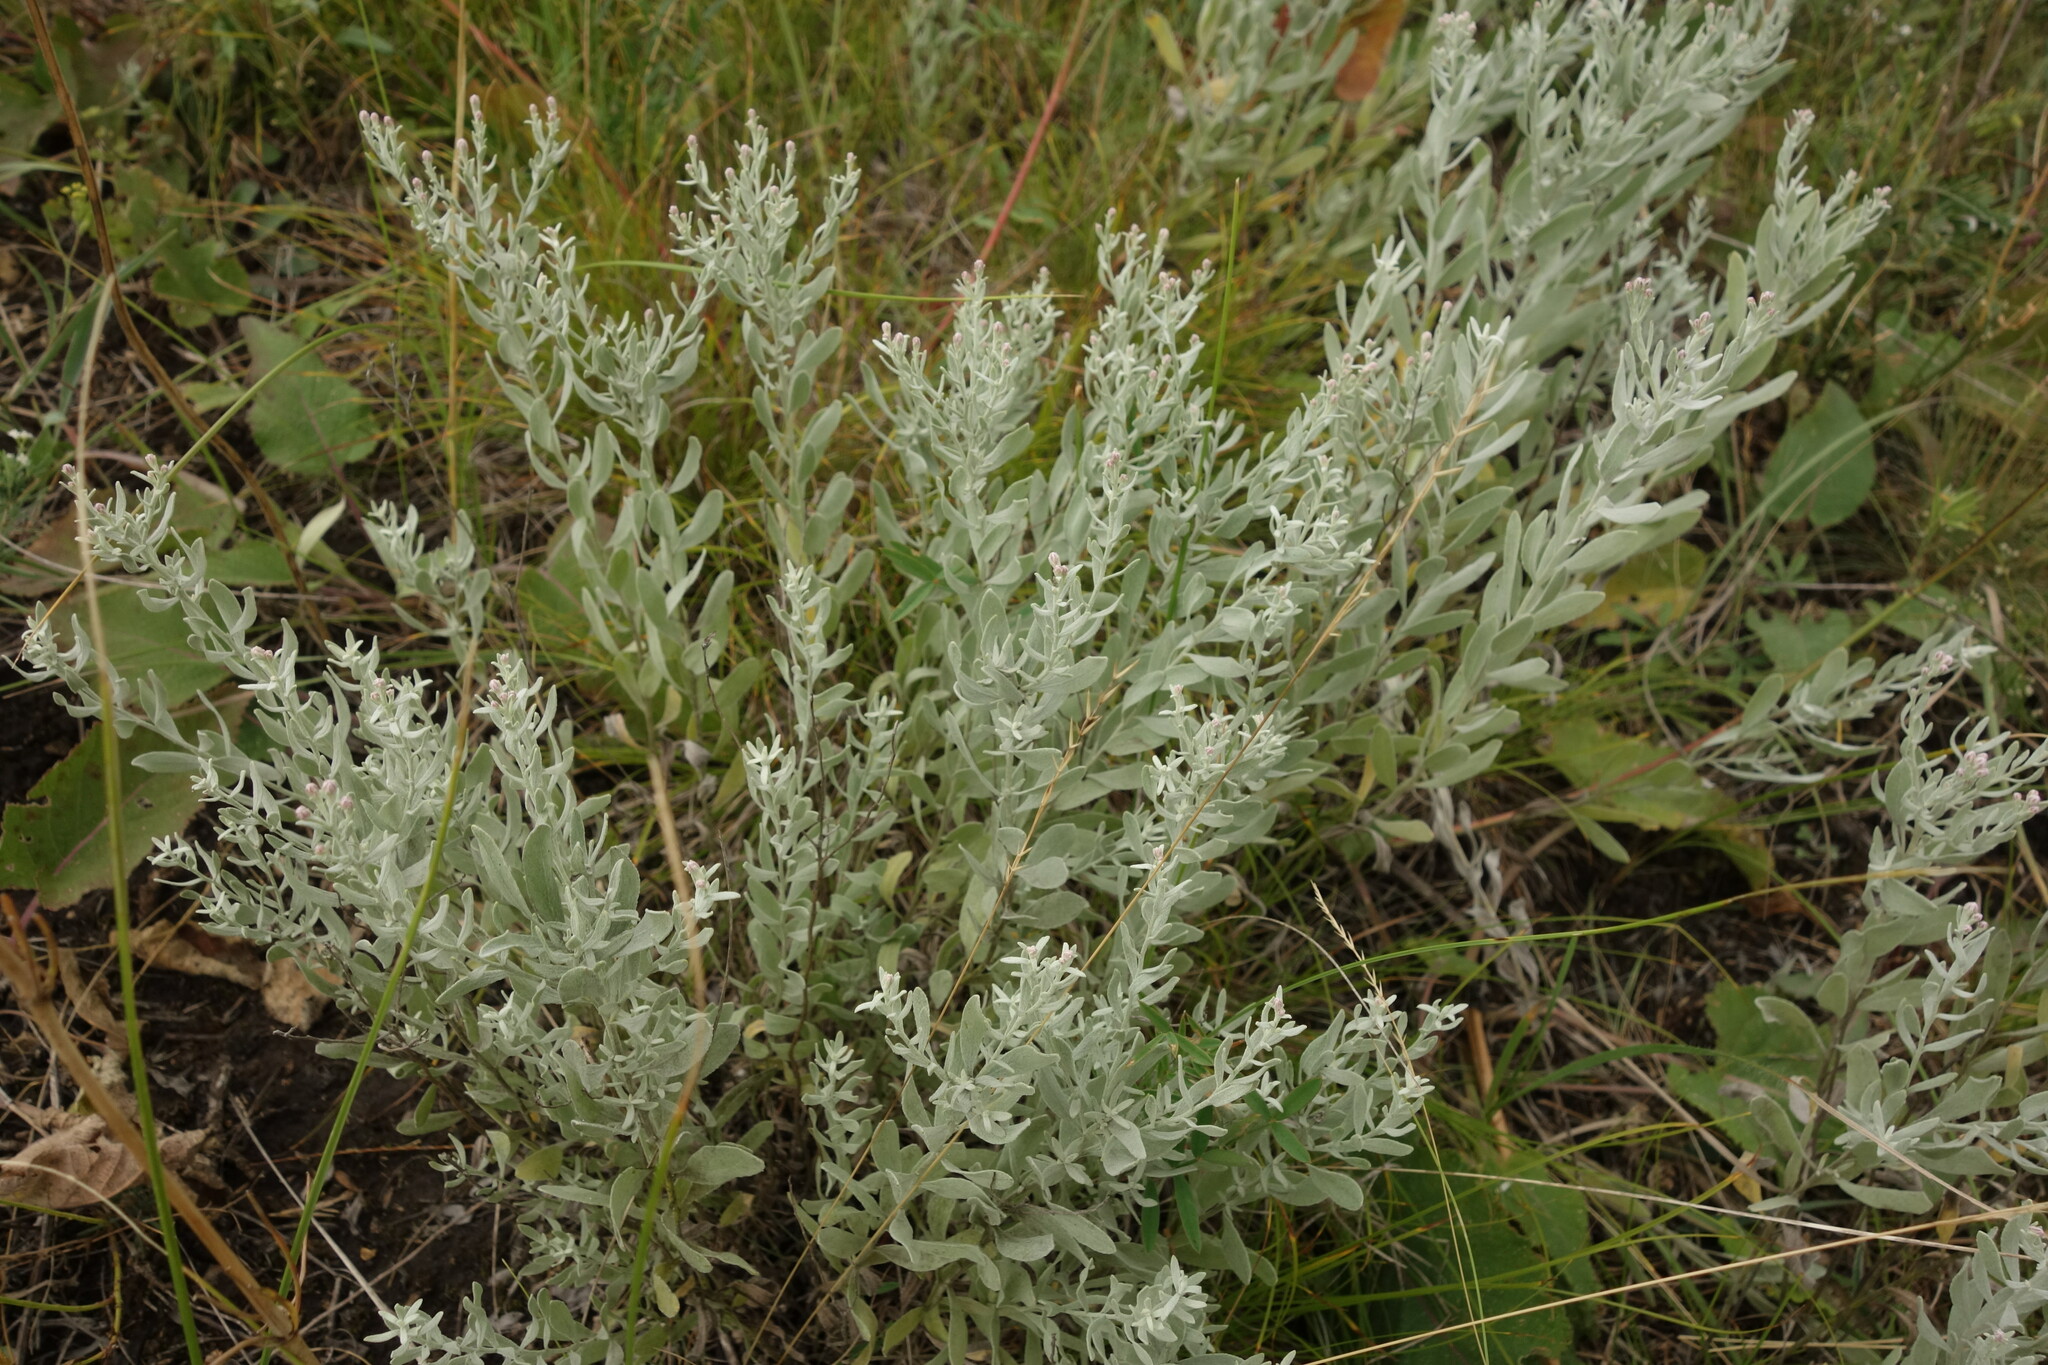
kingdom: Plantae
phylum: Tracheophyta
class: Magnoliopsida
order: Asterales
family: Asteraceae
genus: Galatella
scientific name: Galatella villosa
